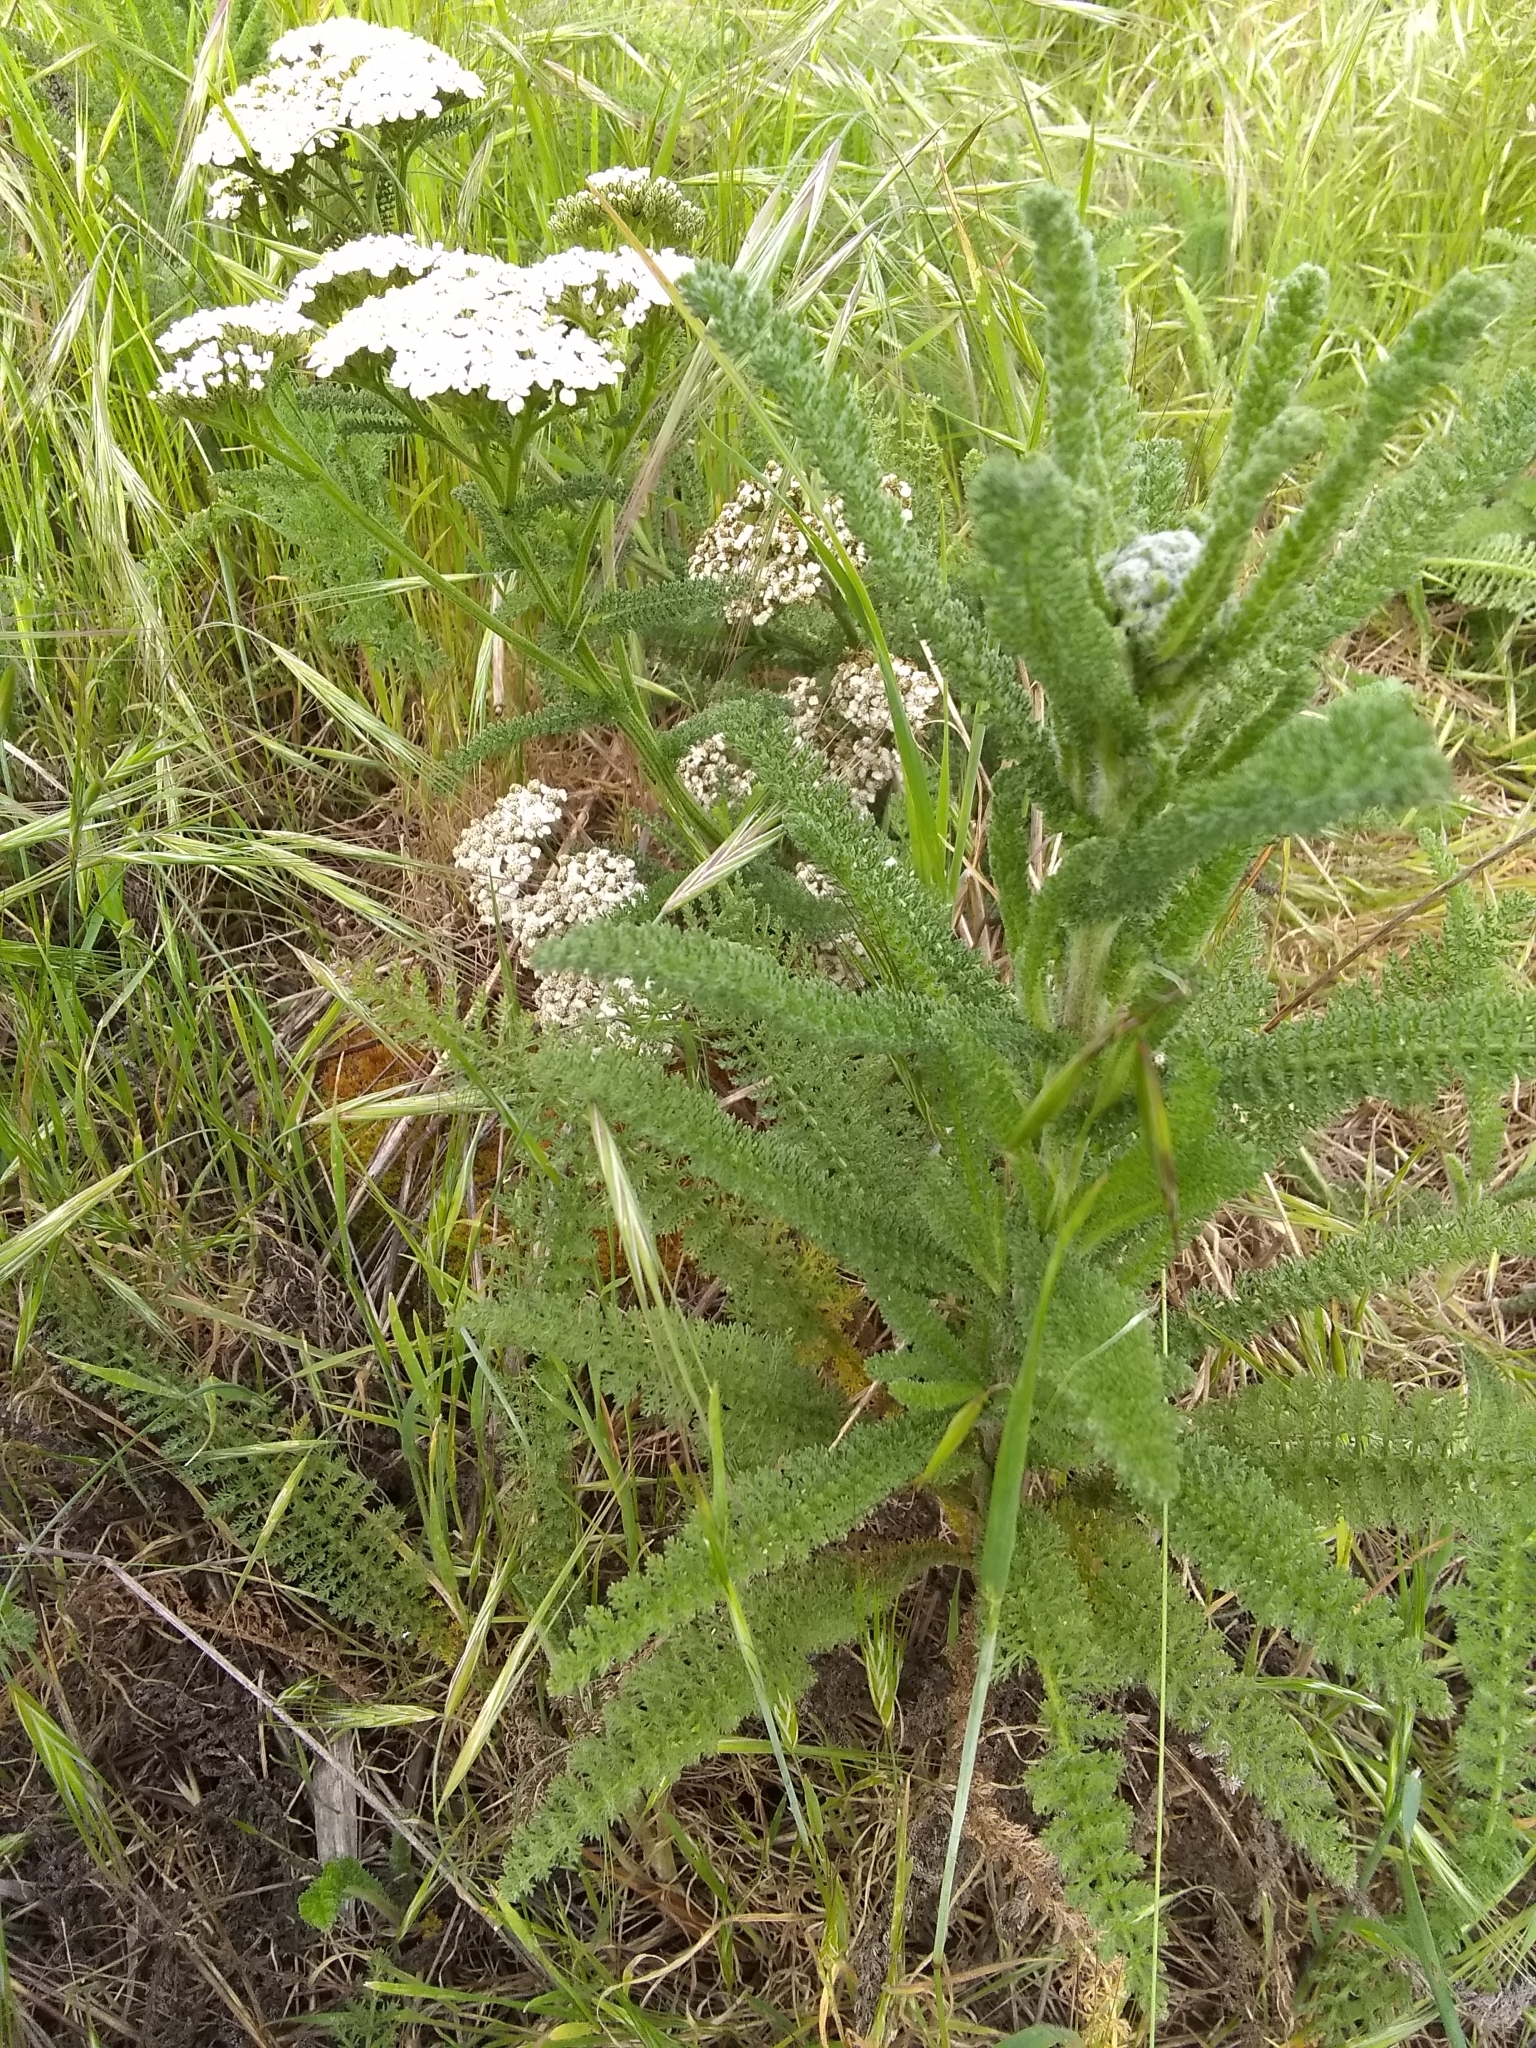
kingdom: Plantae
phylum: Tracheophyta
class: Magnoliopsida
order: Asterales
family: Asteraceae
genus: Achillea
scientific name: Achillea millefolium
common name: Yarrow
